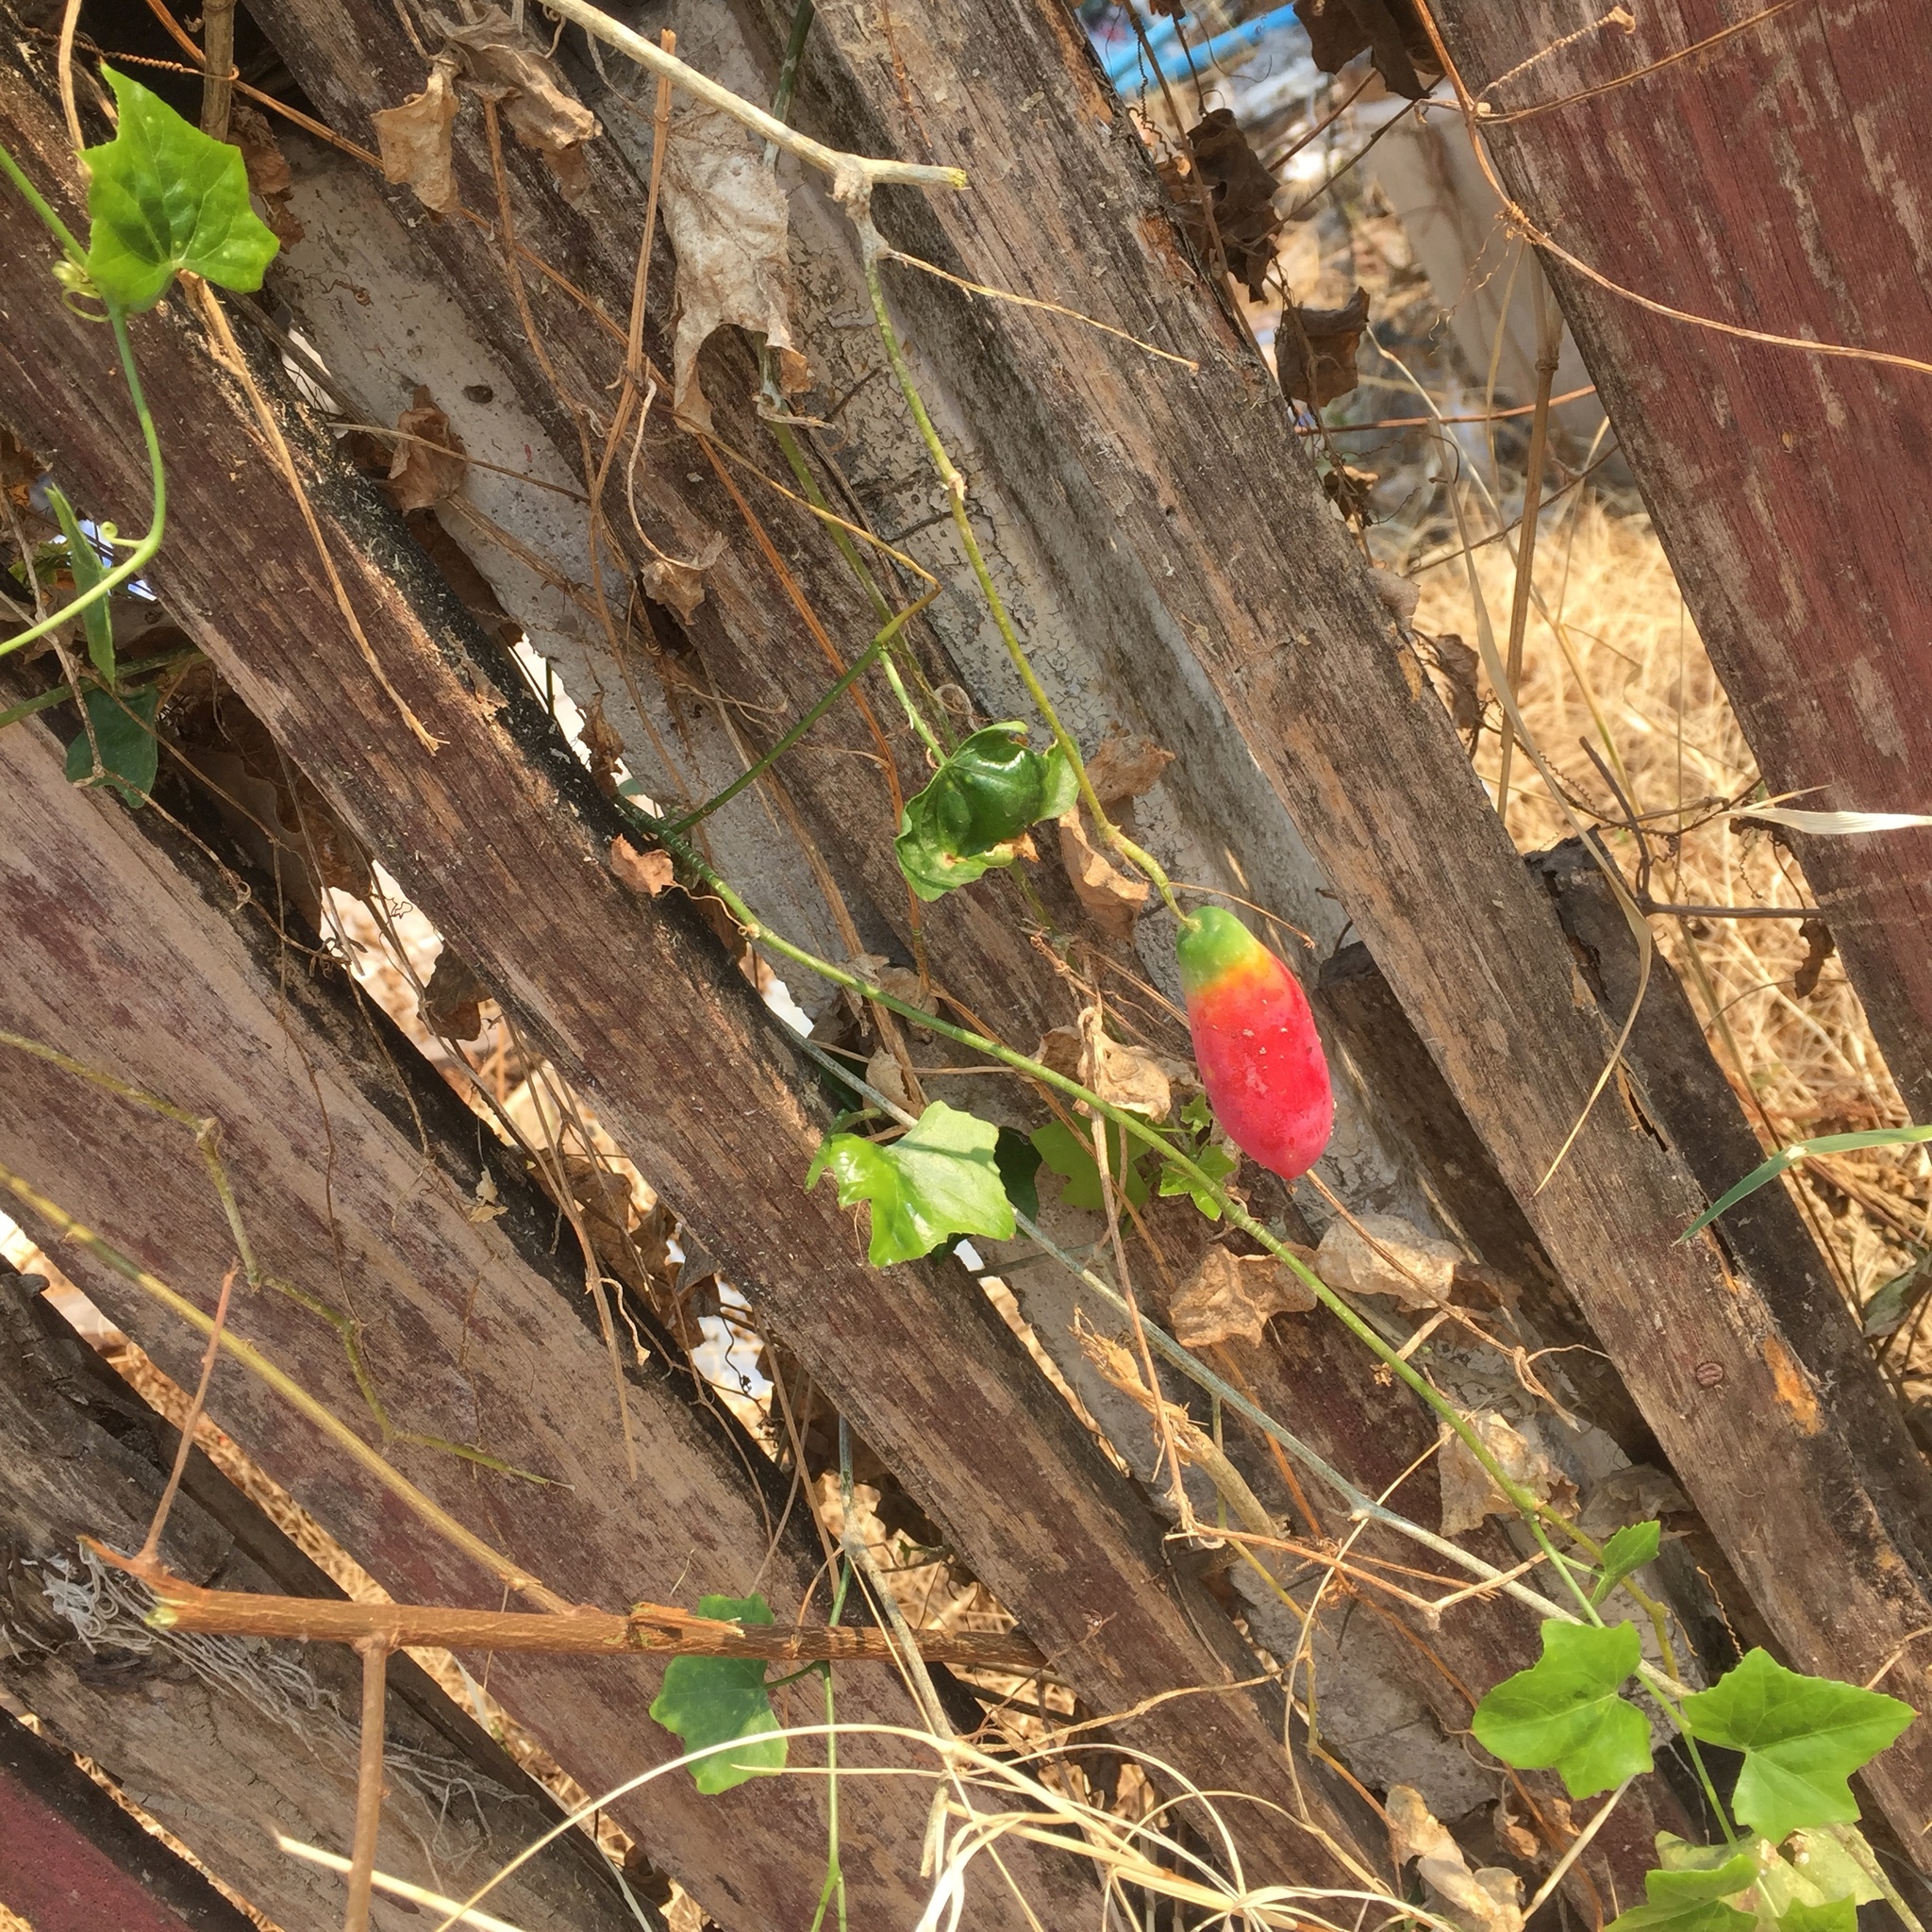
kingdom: Plantae
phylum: Tracheophyta
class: Magnoliopsida
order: Cucurbitales
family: Cucurbitaceae
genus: Coccinia
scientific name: Coccinia grandis
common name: Ivy gourd
